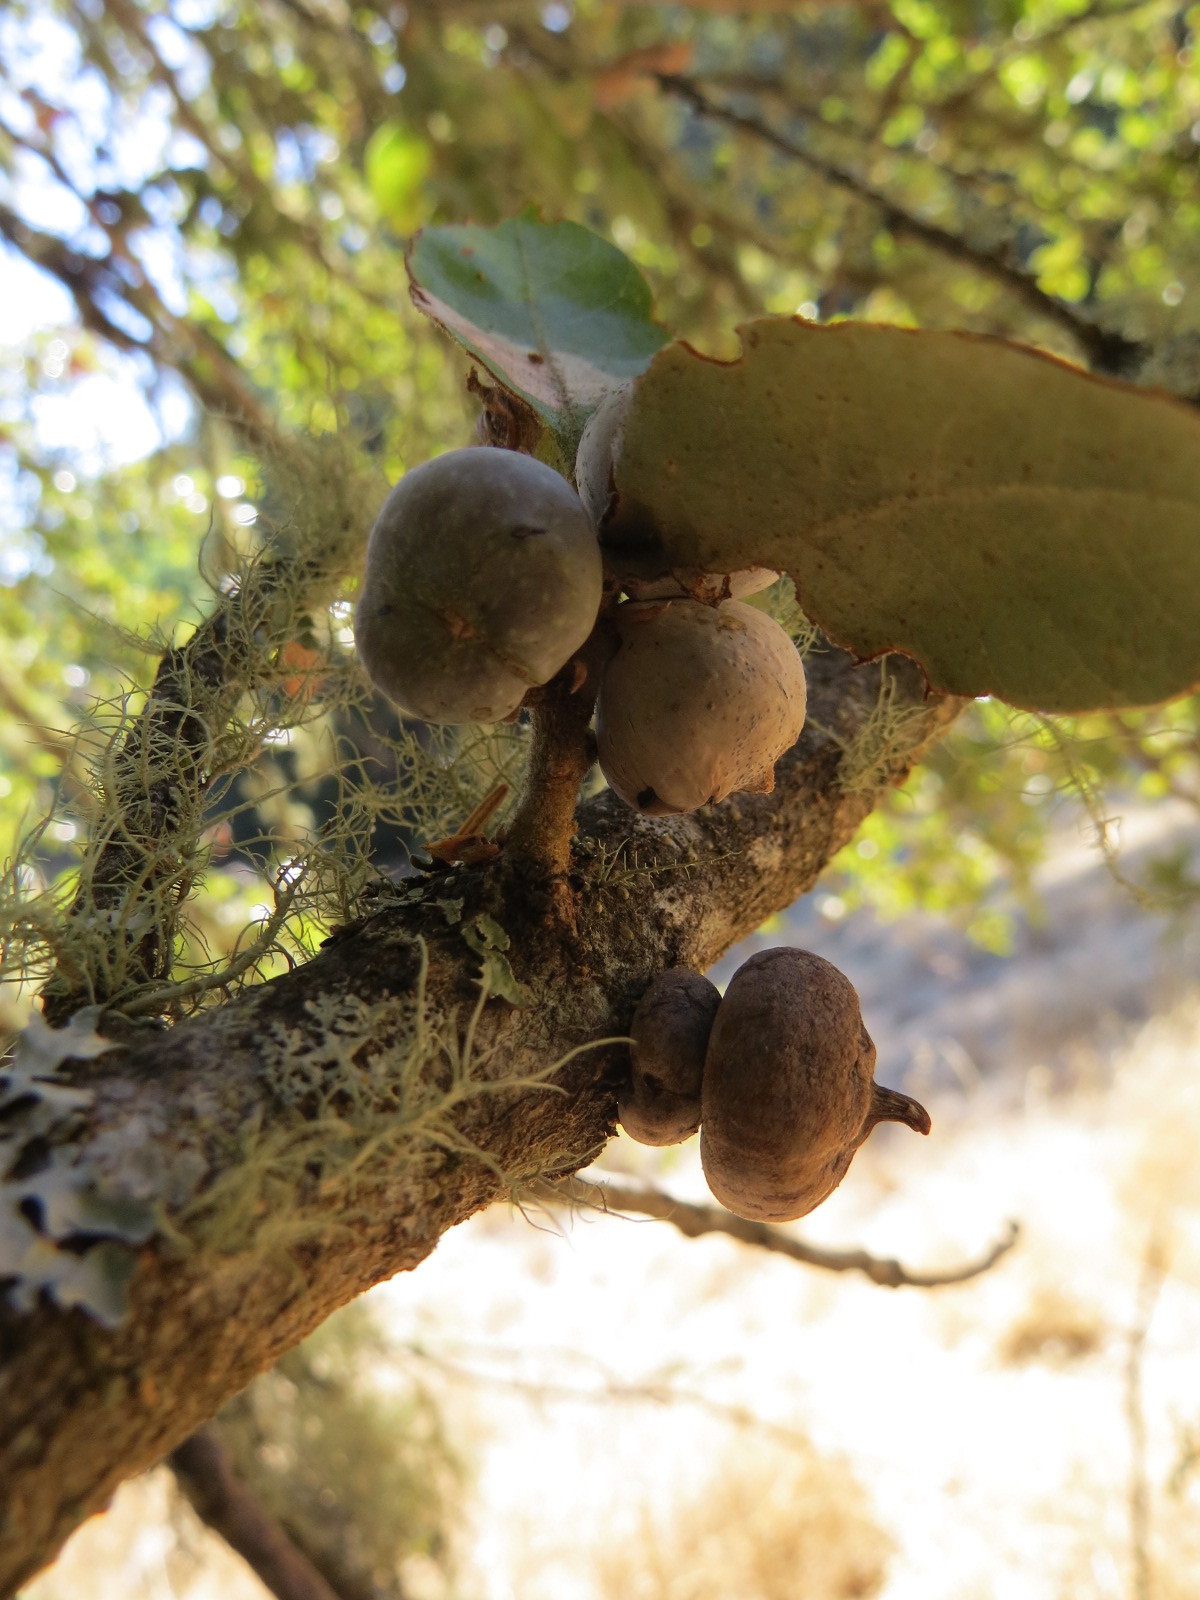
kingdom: Animalia
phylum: Arthropoda
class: Insecta
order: Hymenoptera
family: Cynipidae
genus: Heteroecus
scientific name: Heteroecus
